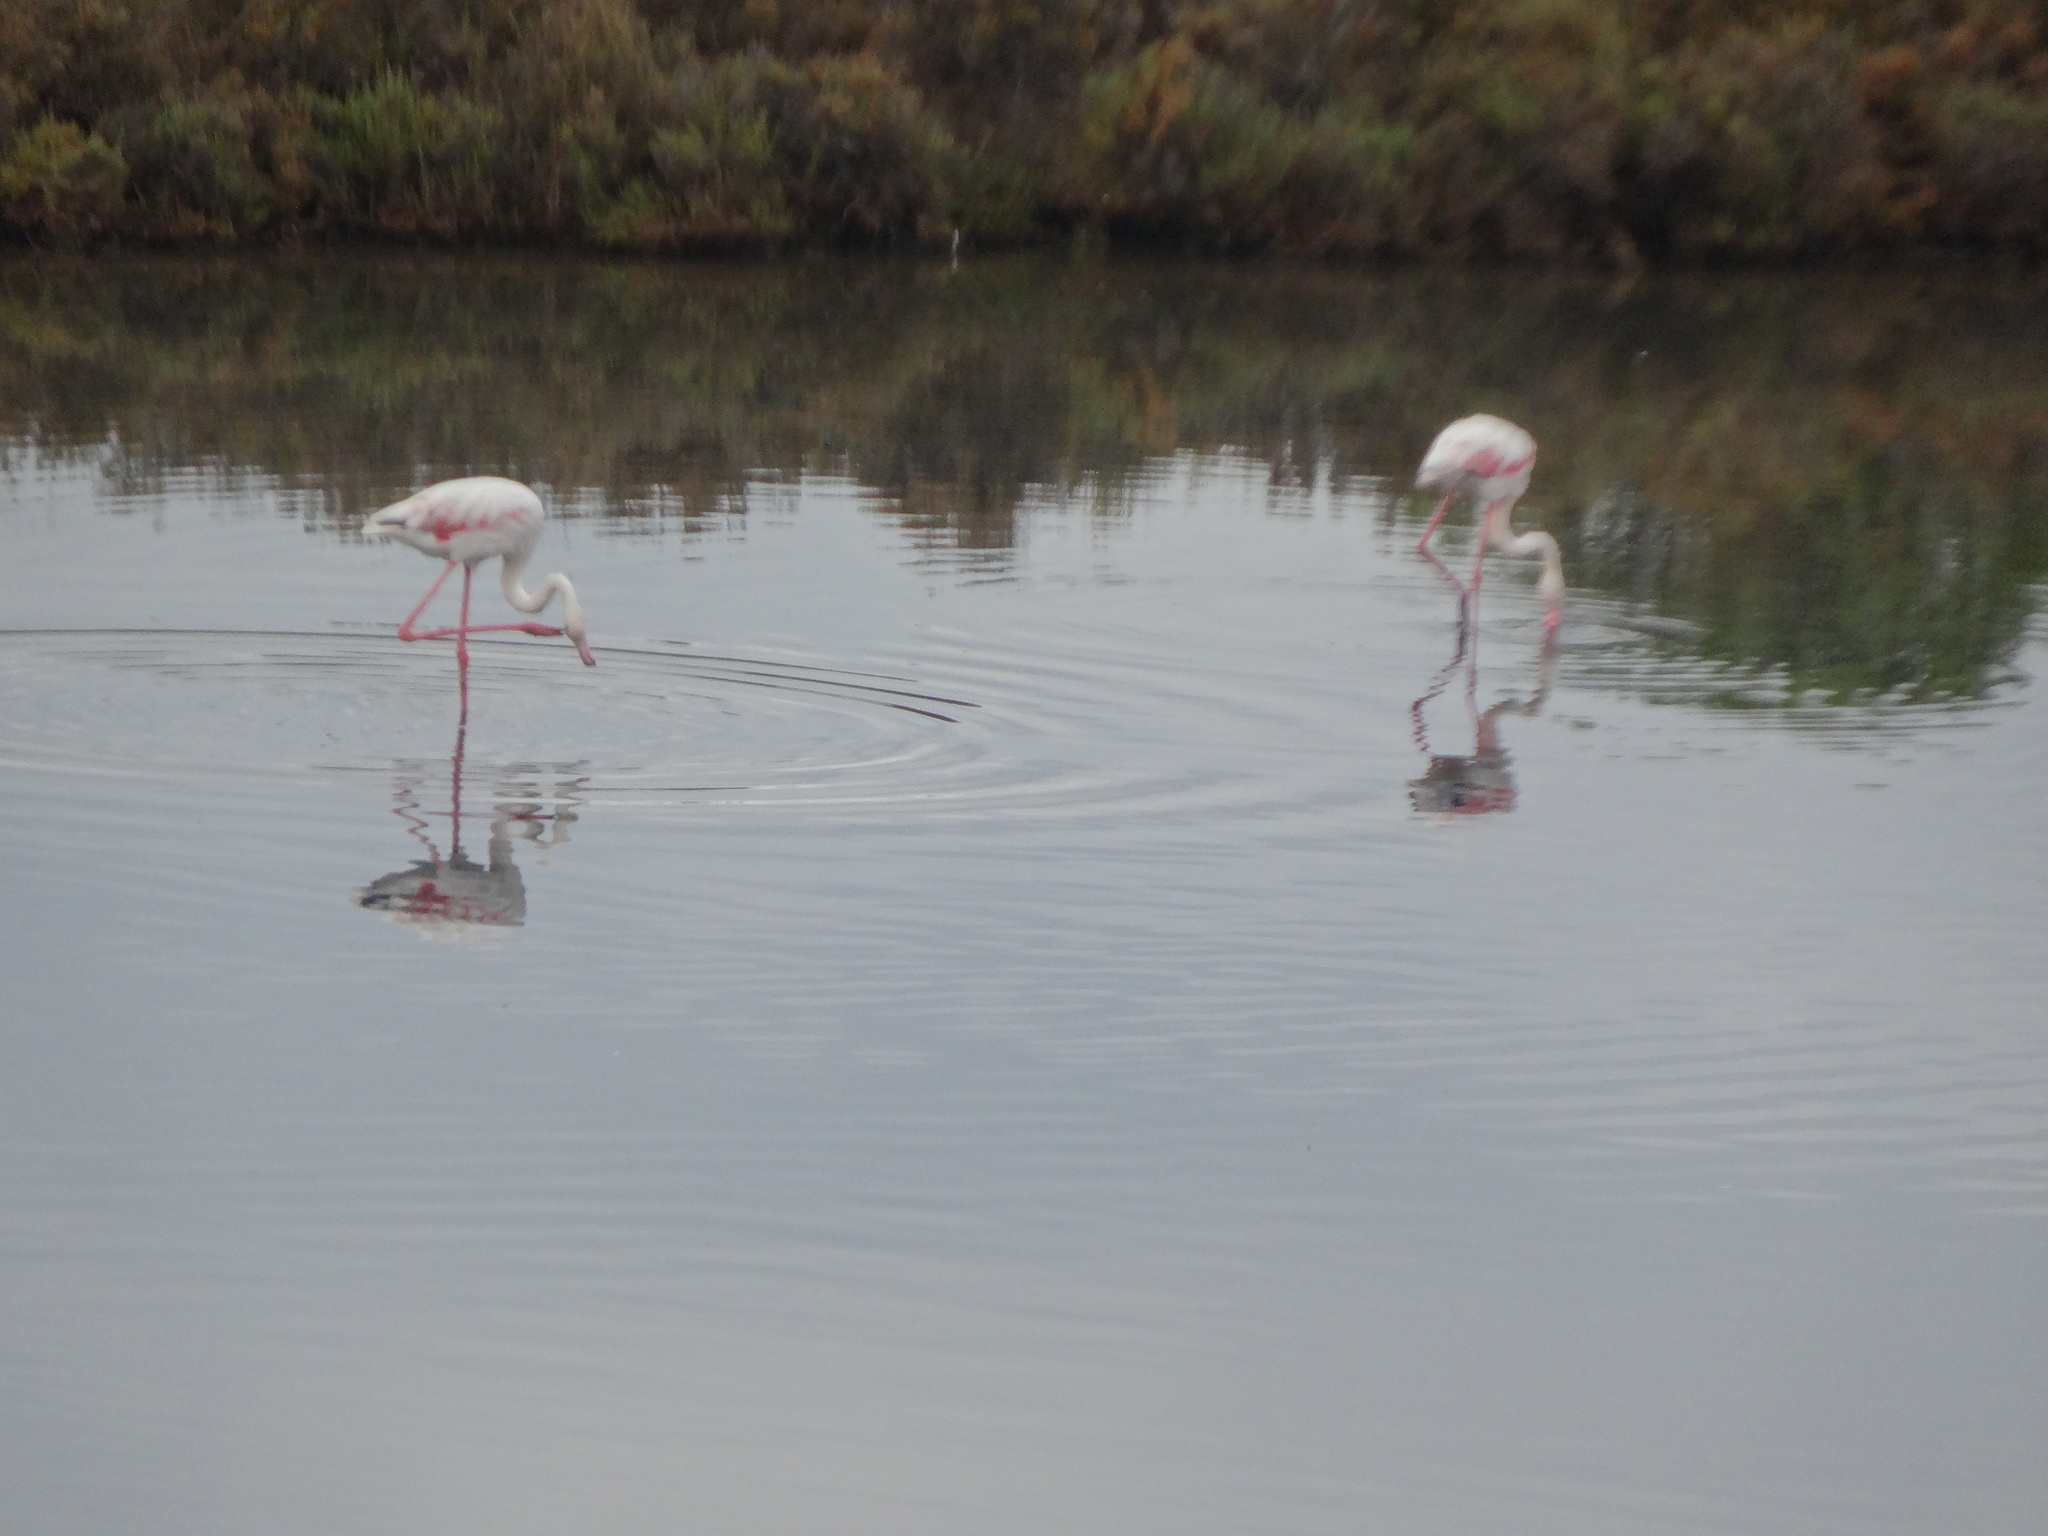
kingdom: Animalia
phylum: Chordata
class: Aves
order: Phoenicopteriformes
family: Phoenicopteridae
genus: Phoenicopterus
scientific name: Phoenicopterus roseus
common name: Greater flamingo
